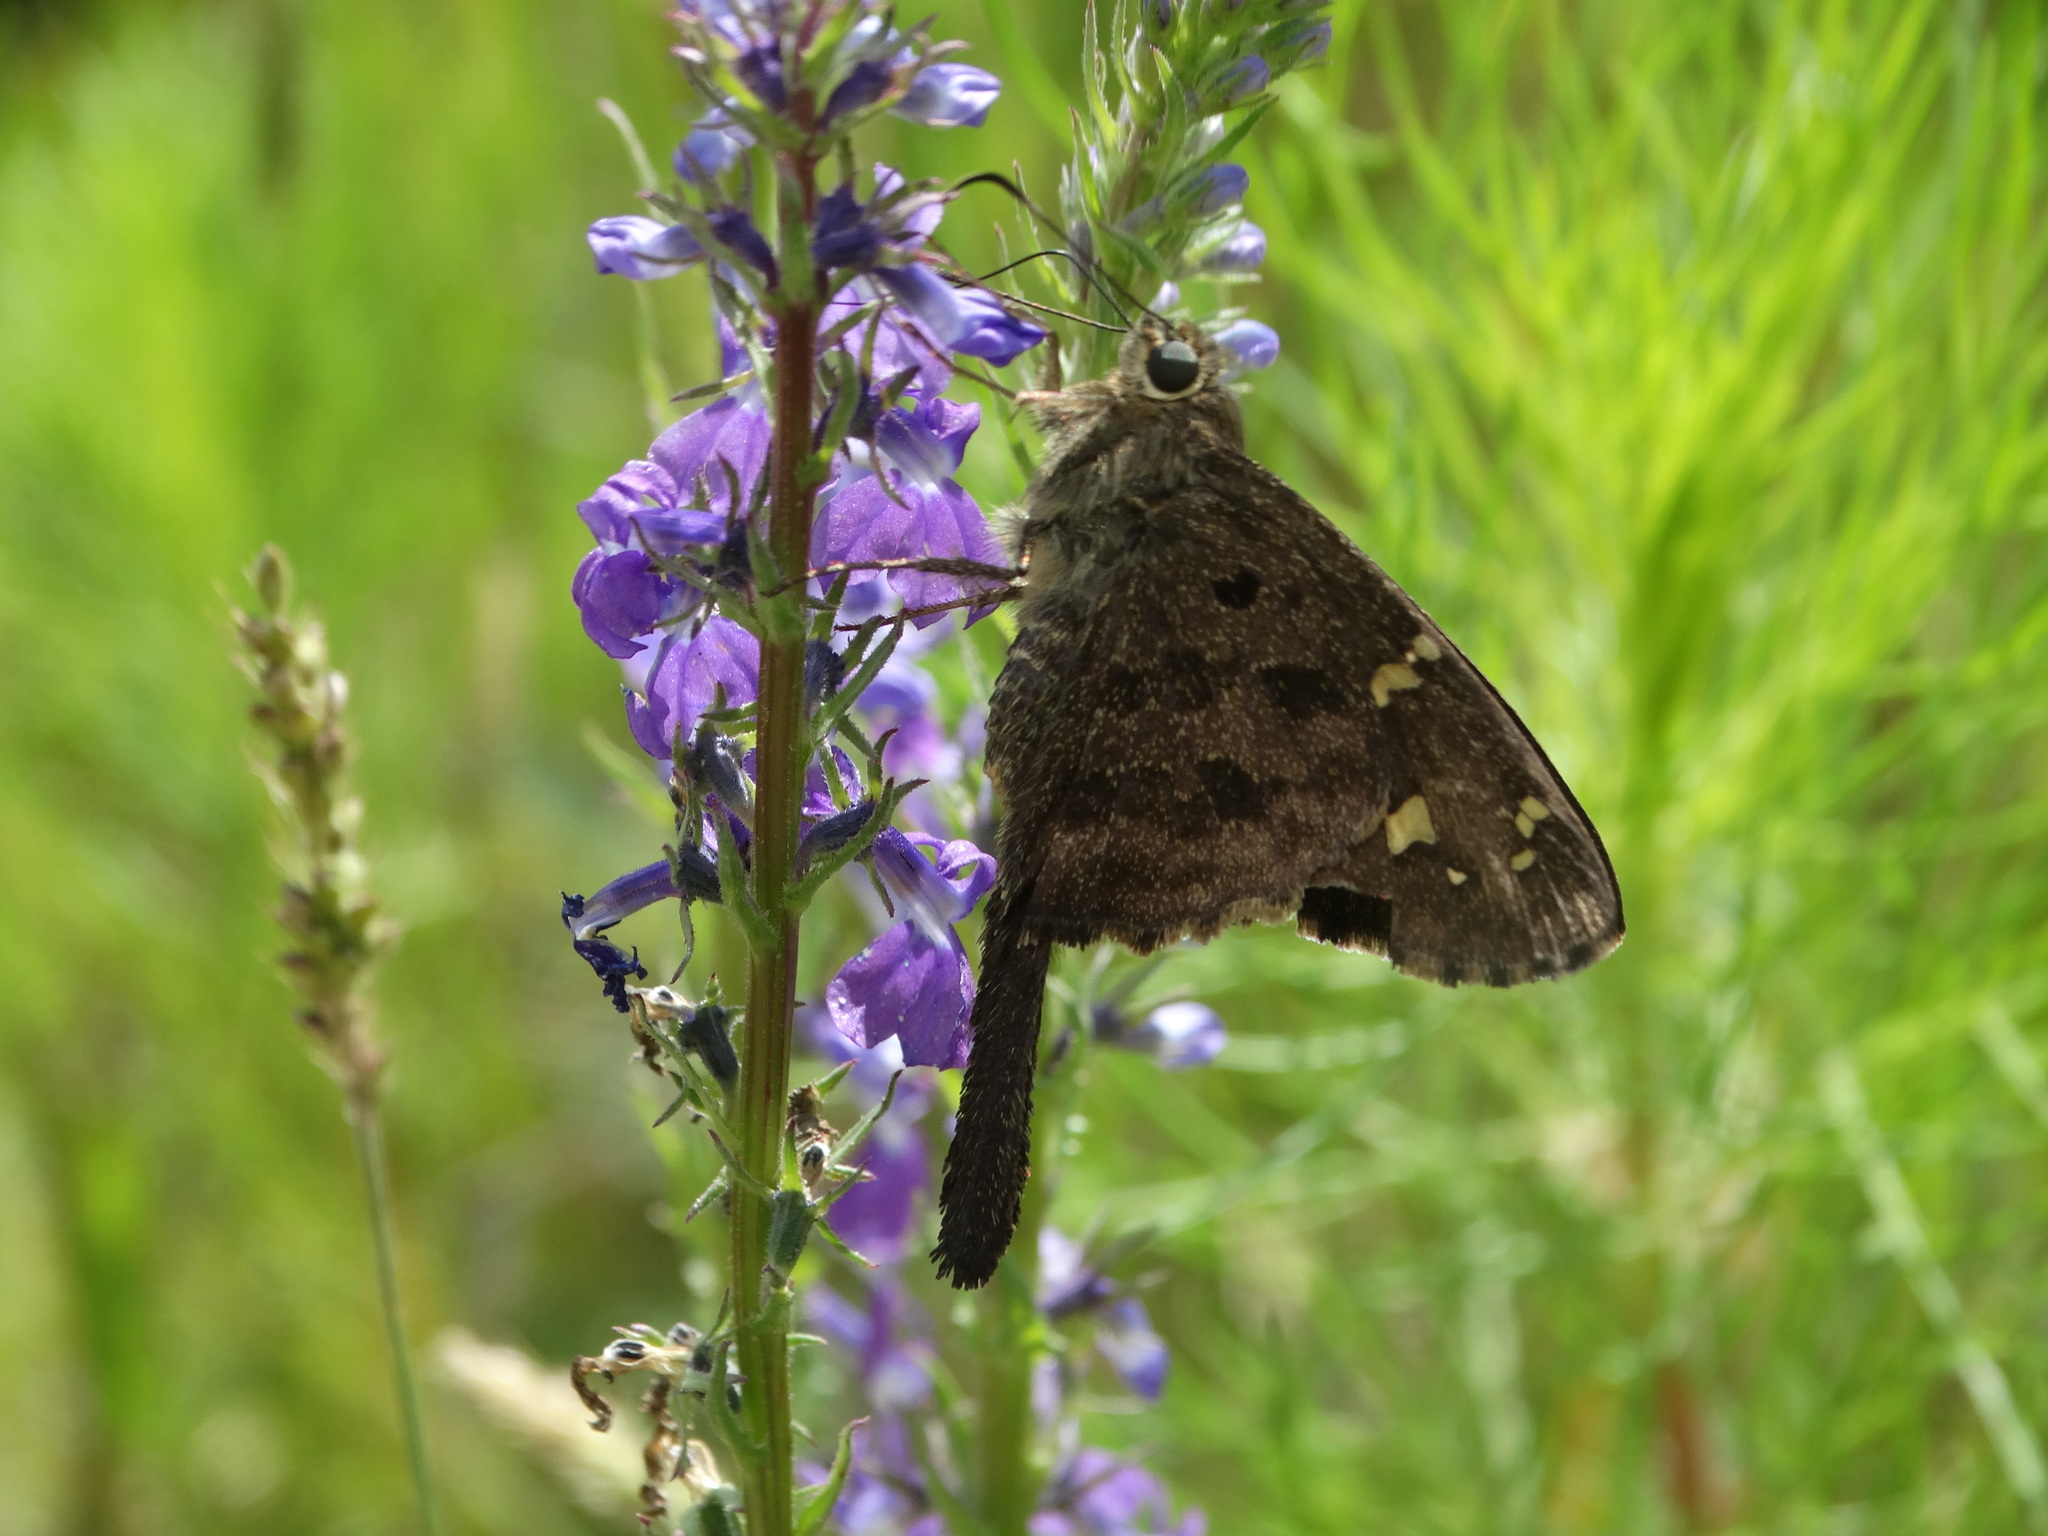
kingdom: Animalia
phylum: Arthropoda
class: Insecta
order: Lepidoptera
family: Hesperiidae
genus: Thorybes
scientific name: Thorybes
